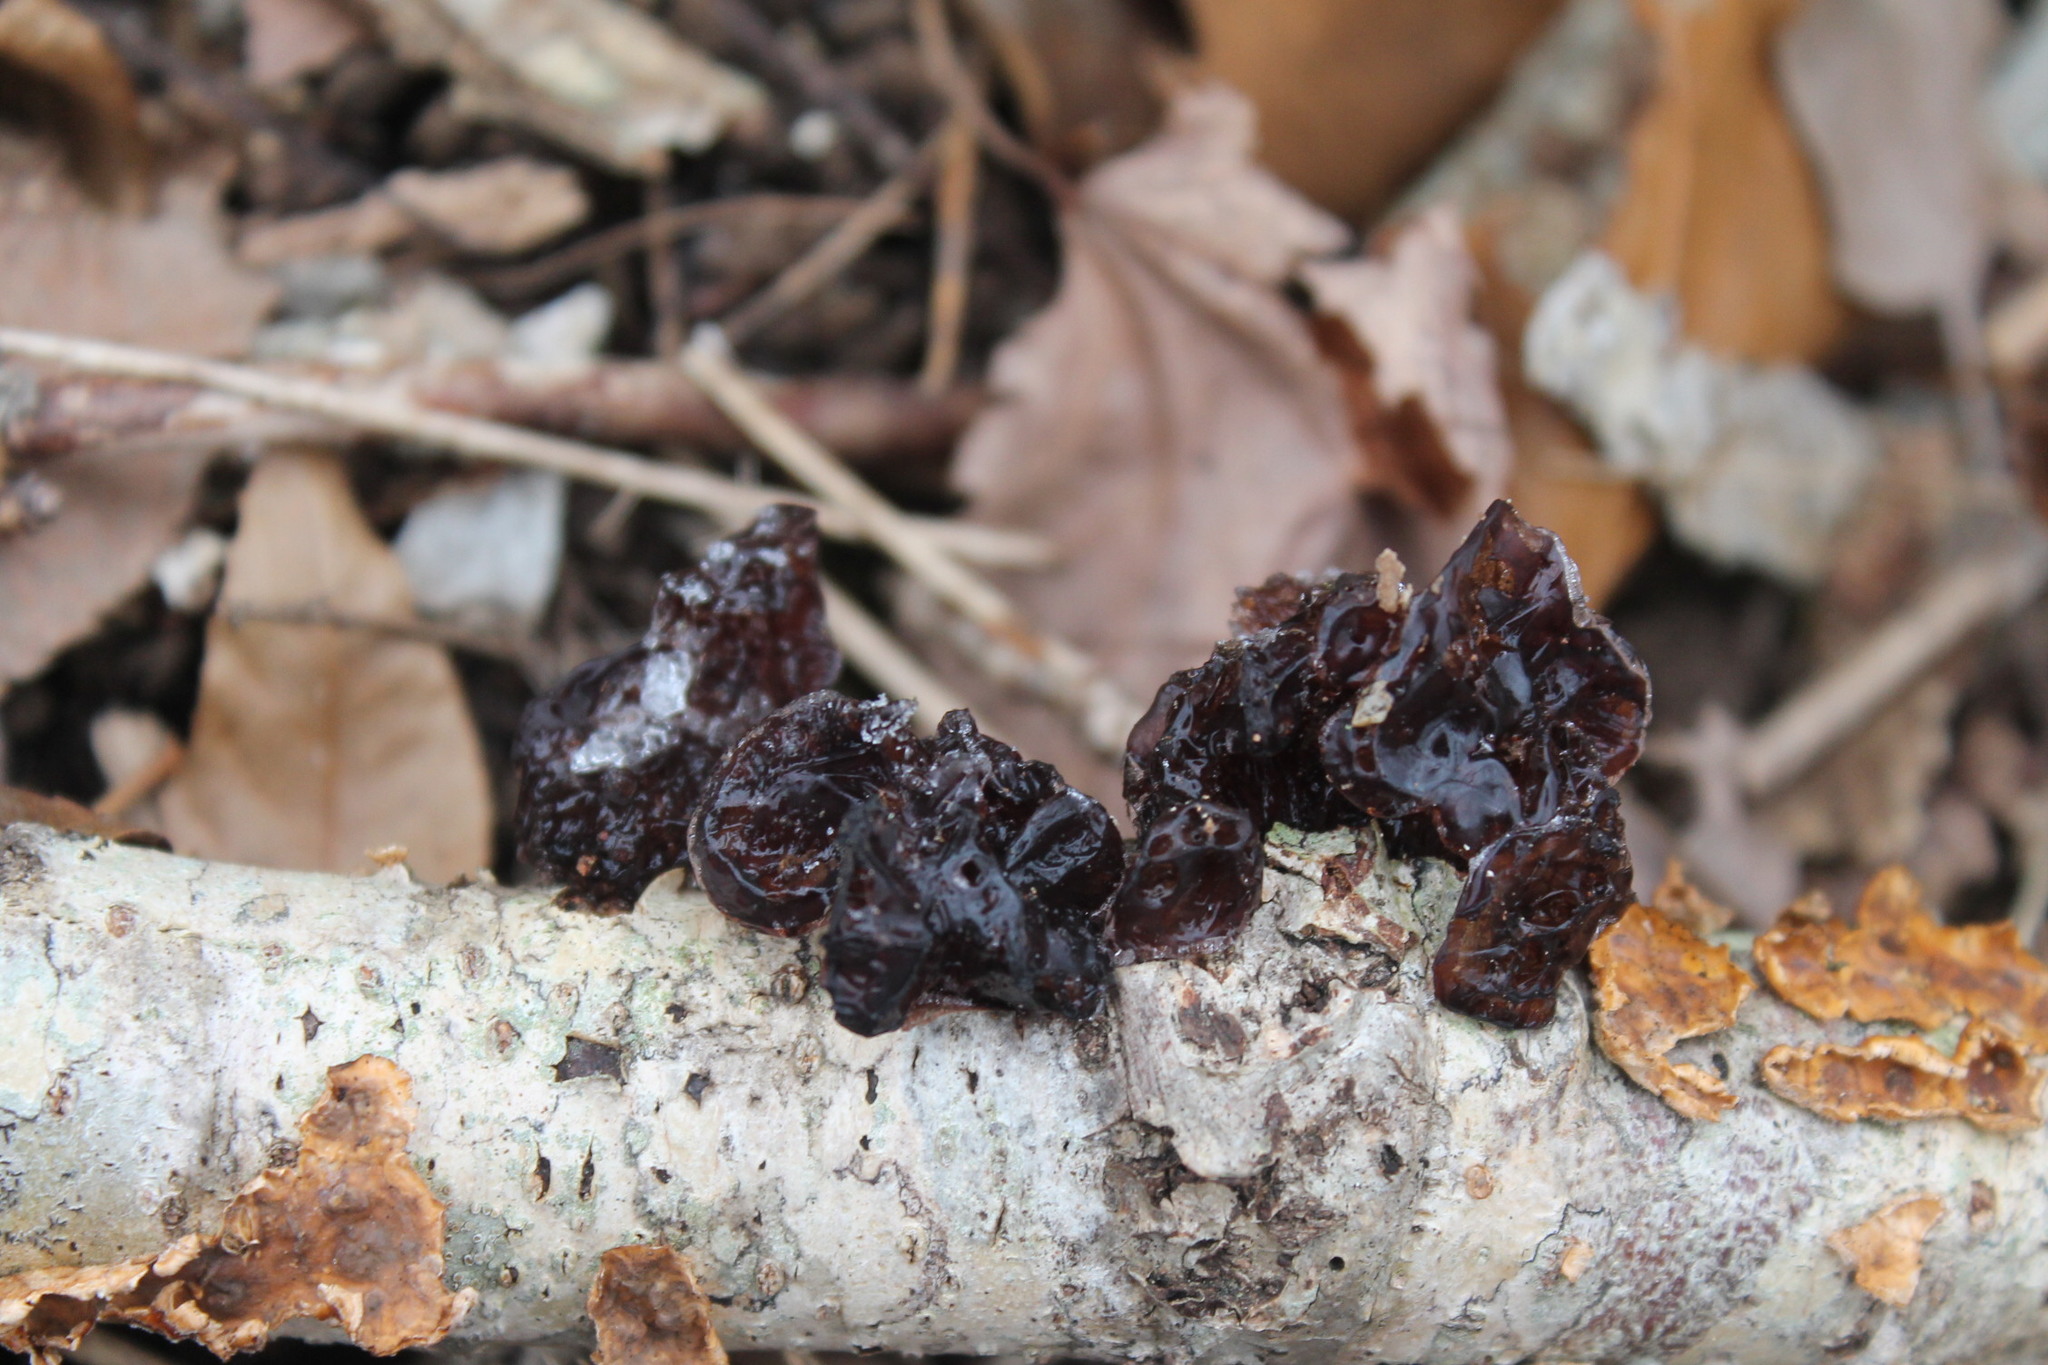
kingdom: Fungi
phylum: Basidiomycota
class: Agaricomycetes
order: Auriculariales
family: Auriculariaceae
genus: Exidia
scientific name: Exidia
